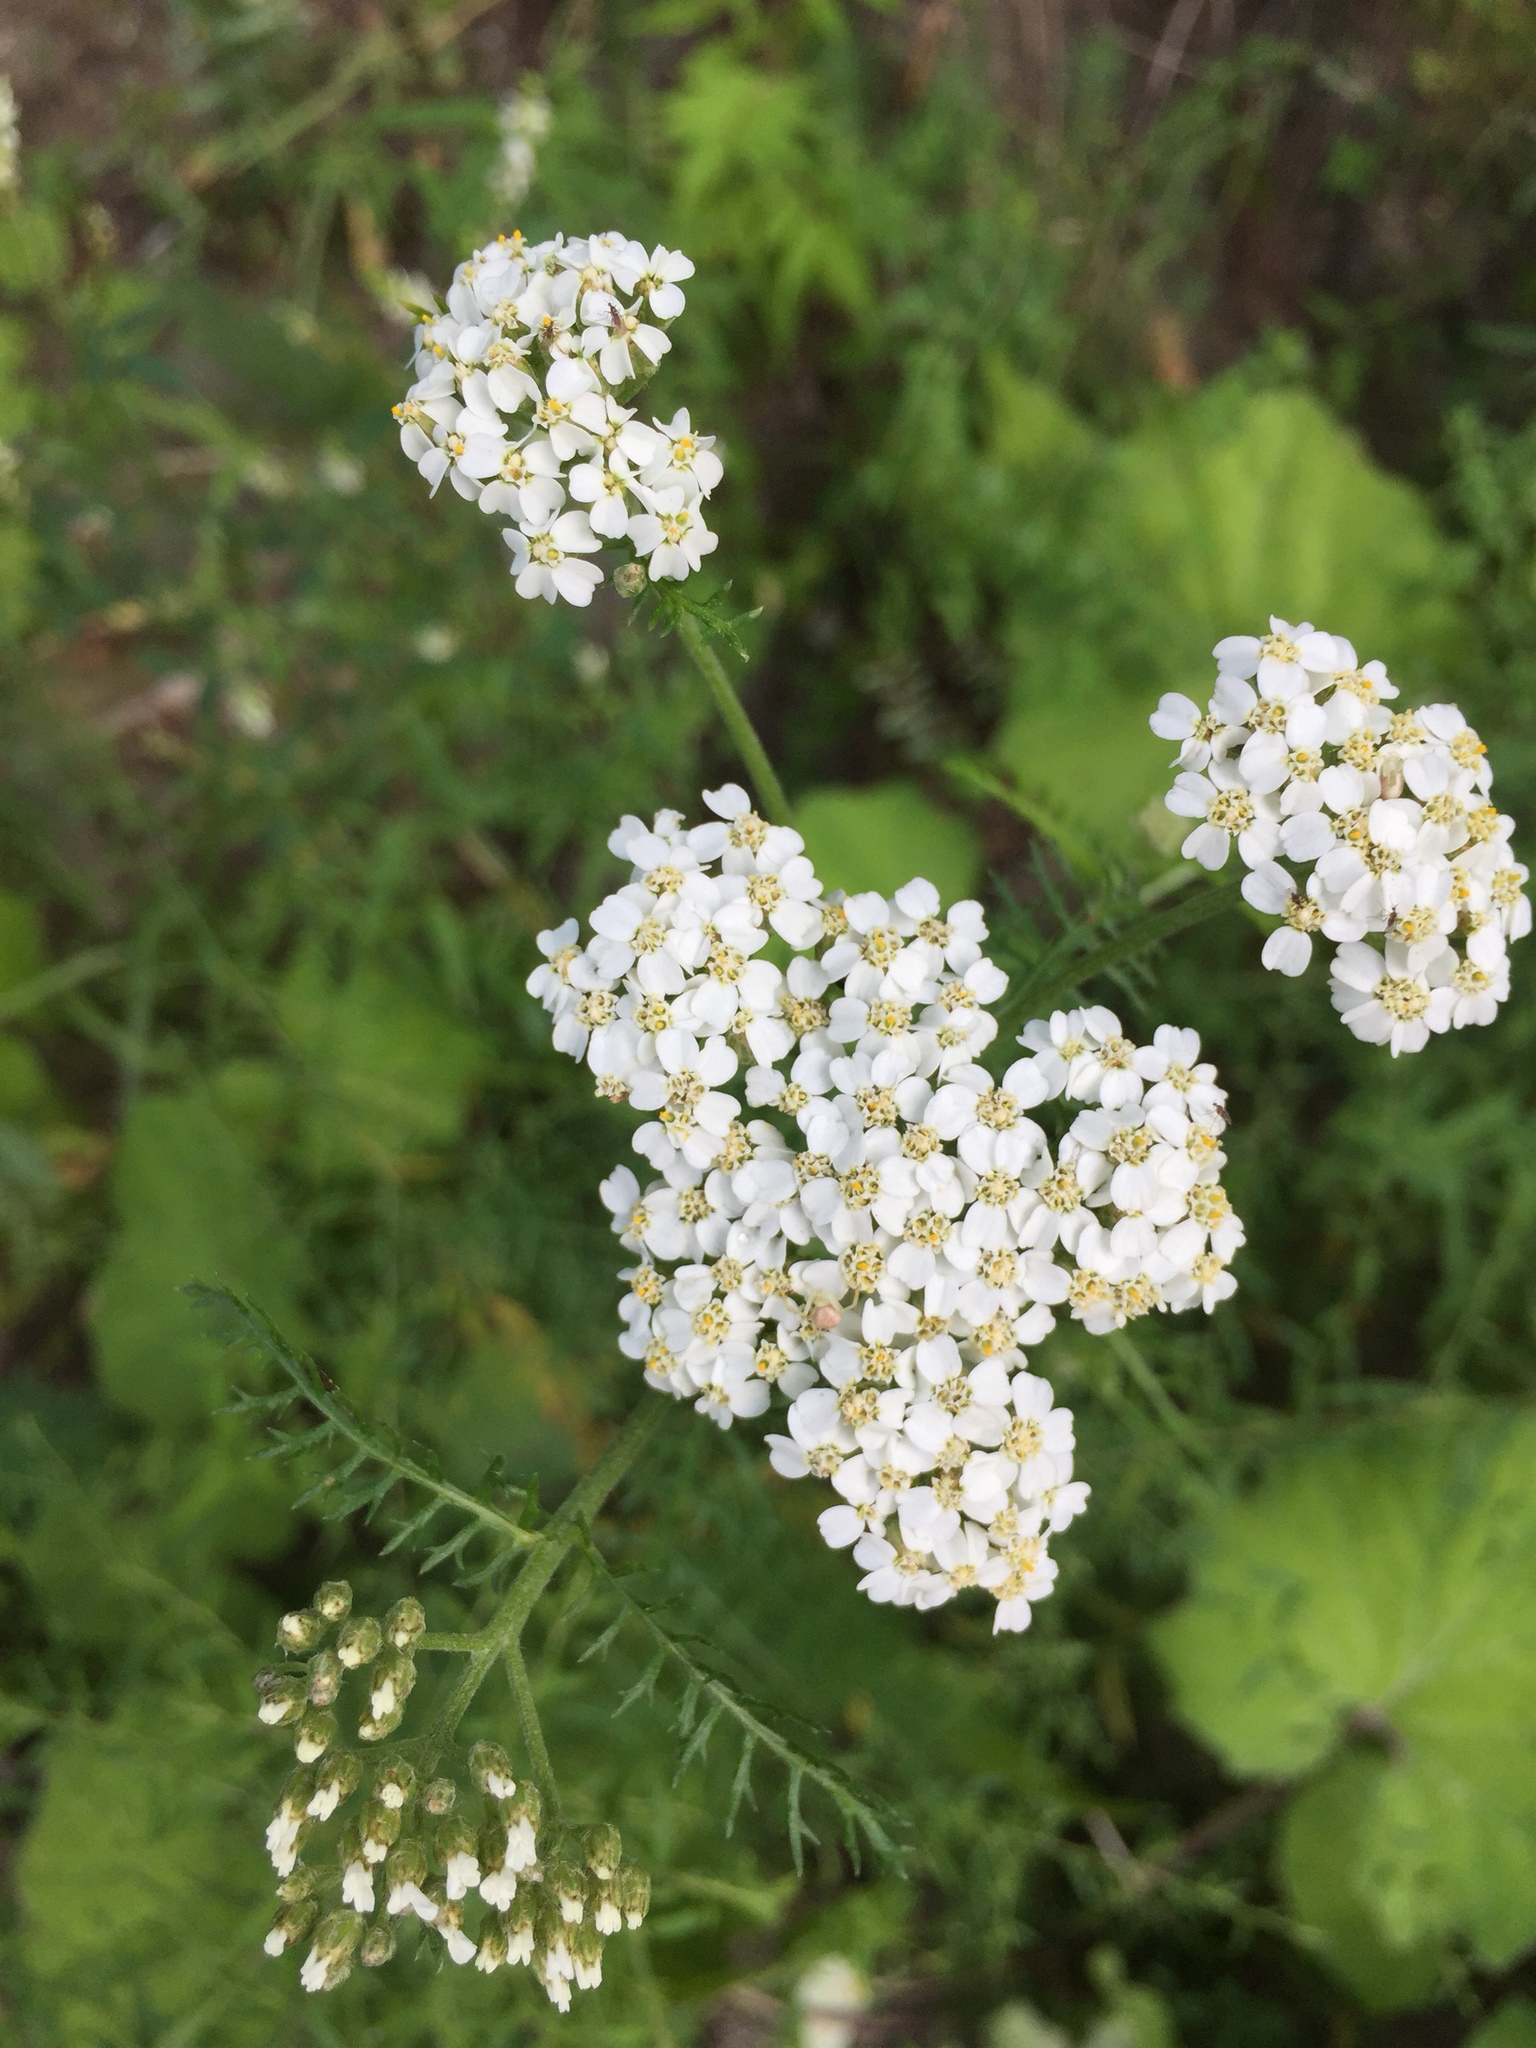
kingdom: Plantae
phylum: Tracheophyta
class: Magnoliopsida
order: Asterales
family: Asteraceae
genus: Achillea
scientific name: Achillea millefolium
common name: Yarrow
